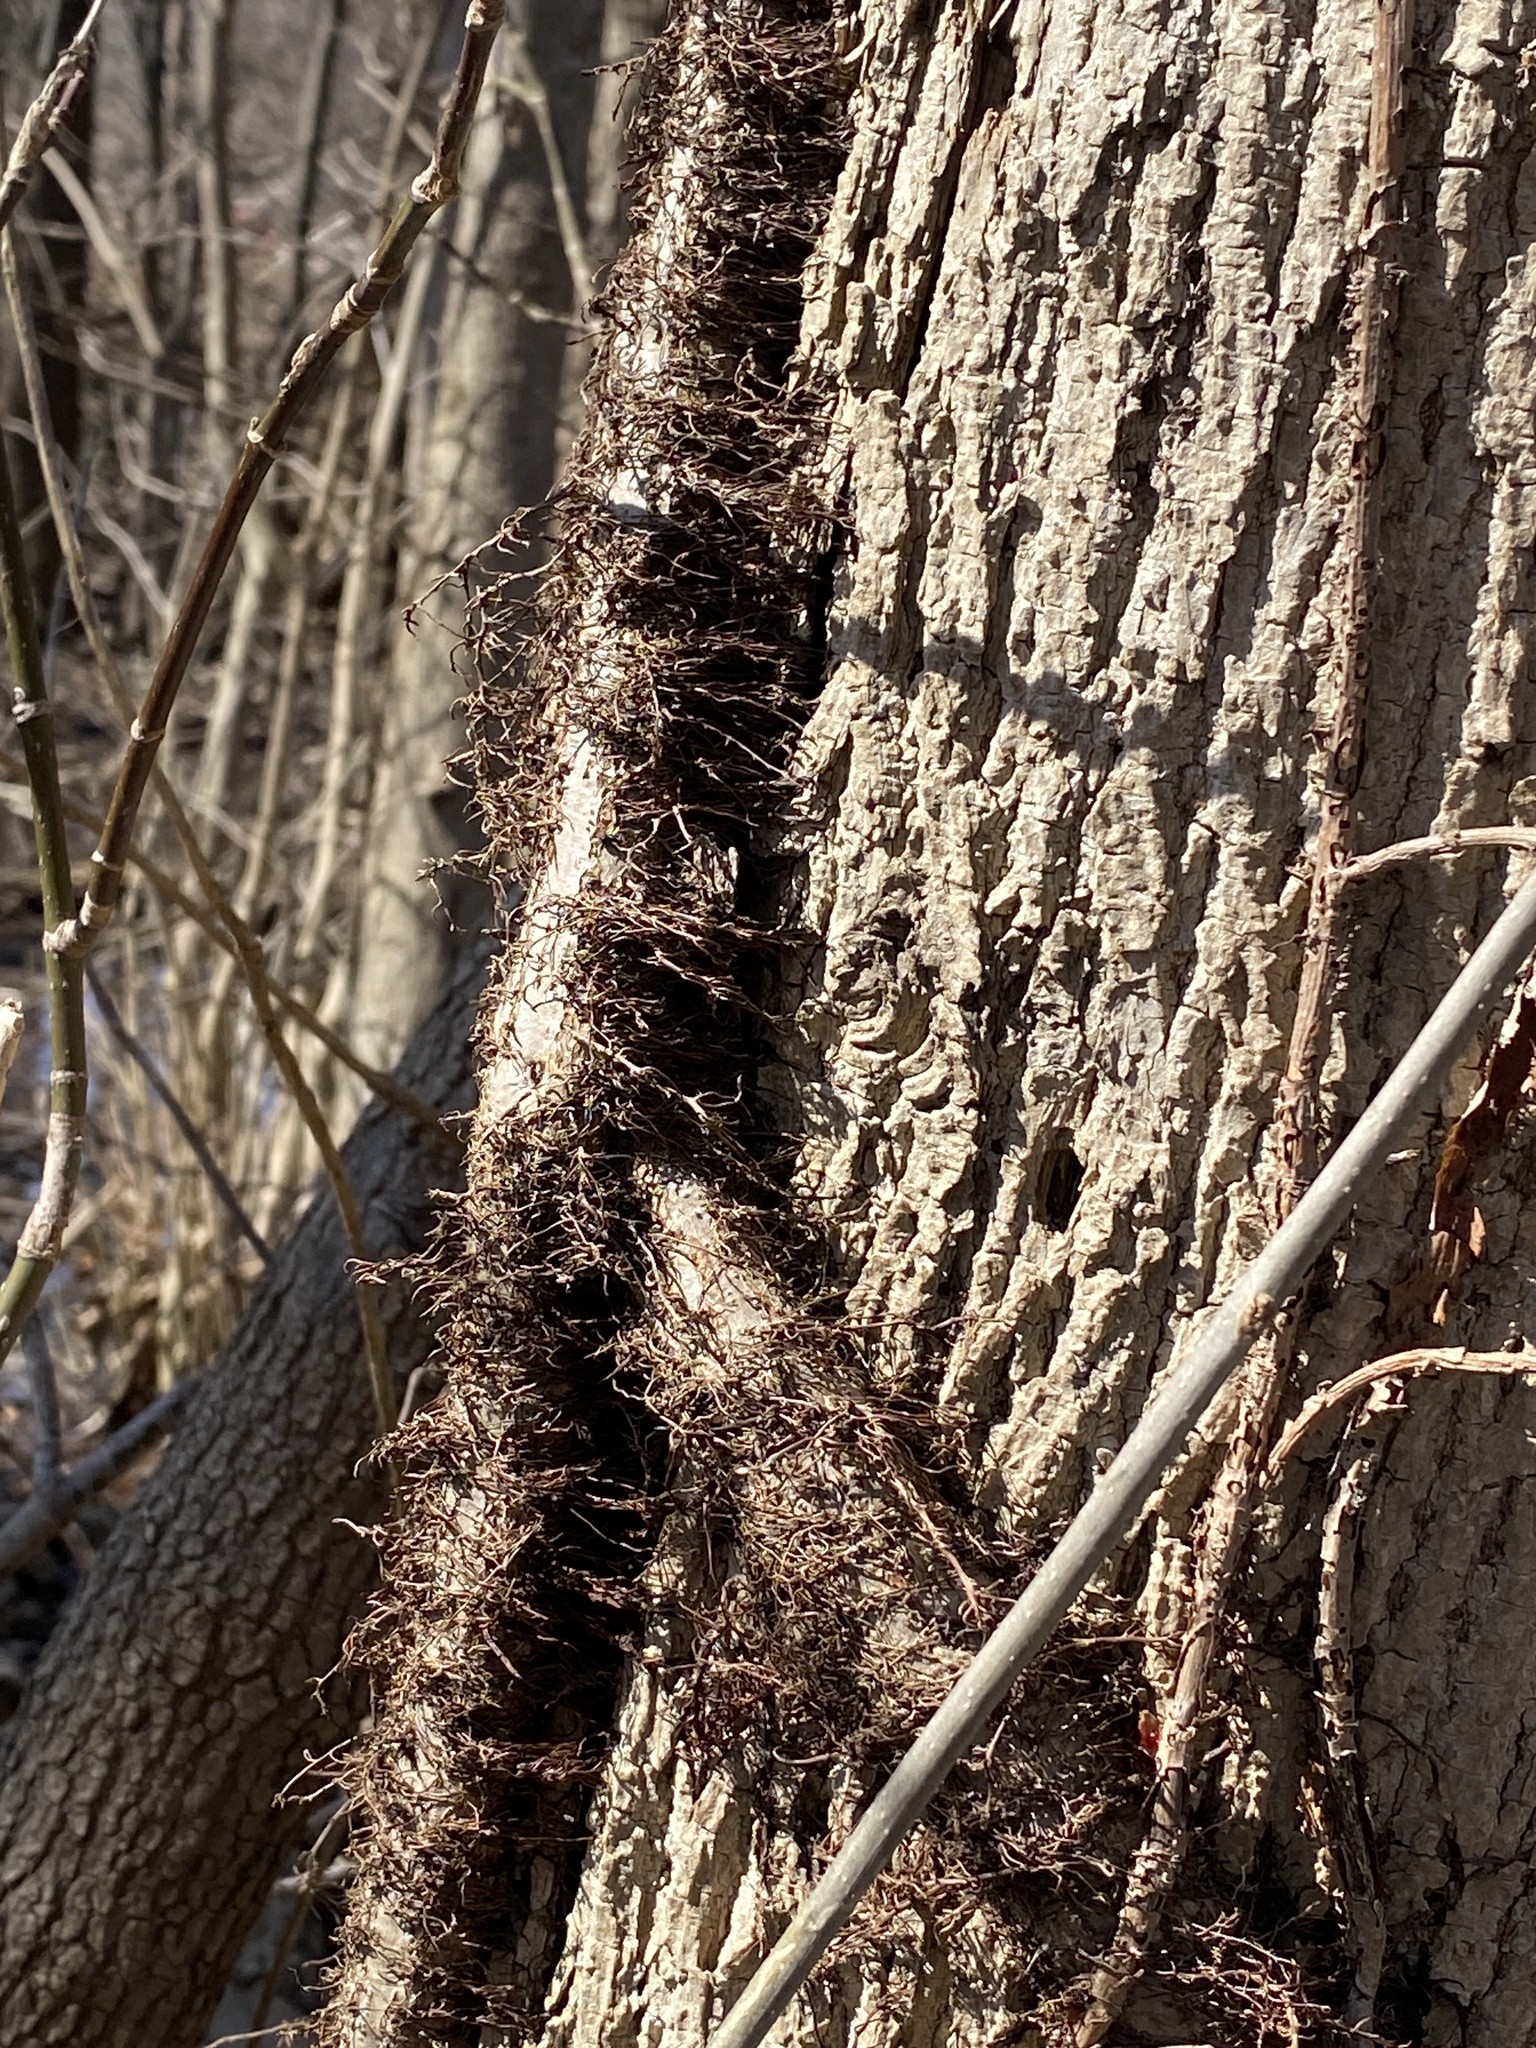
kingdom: Plantae
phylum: Tracheophyta
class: Magnoliopsida
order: Sapindales
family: Anacardiaceae
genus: Toxicodendron
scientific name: Toxicodendron radicans
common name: Poison ivy
